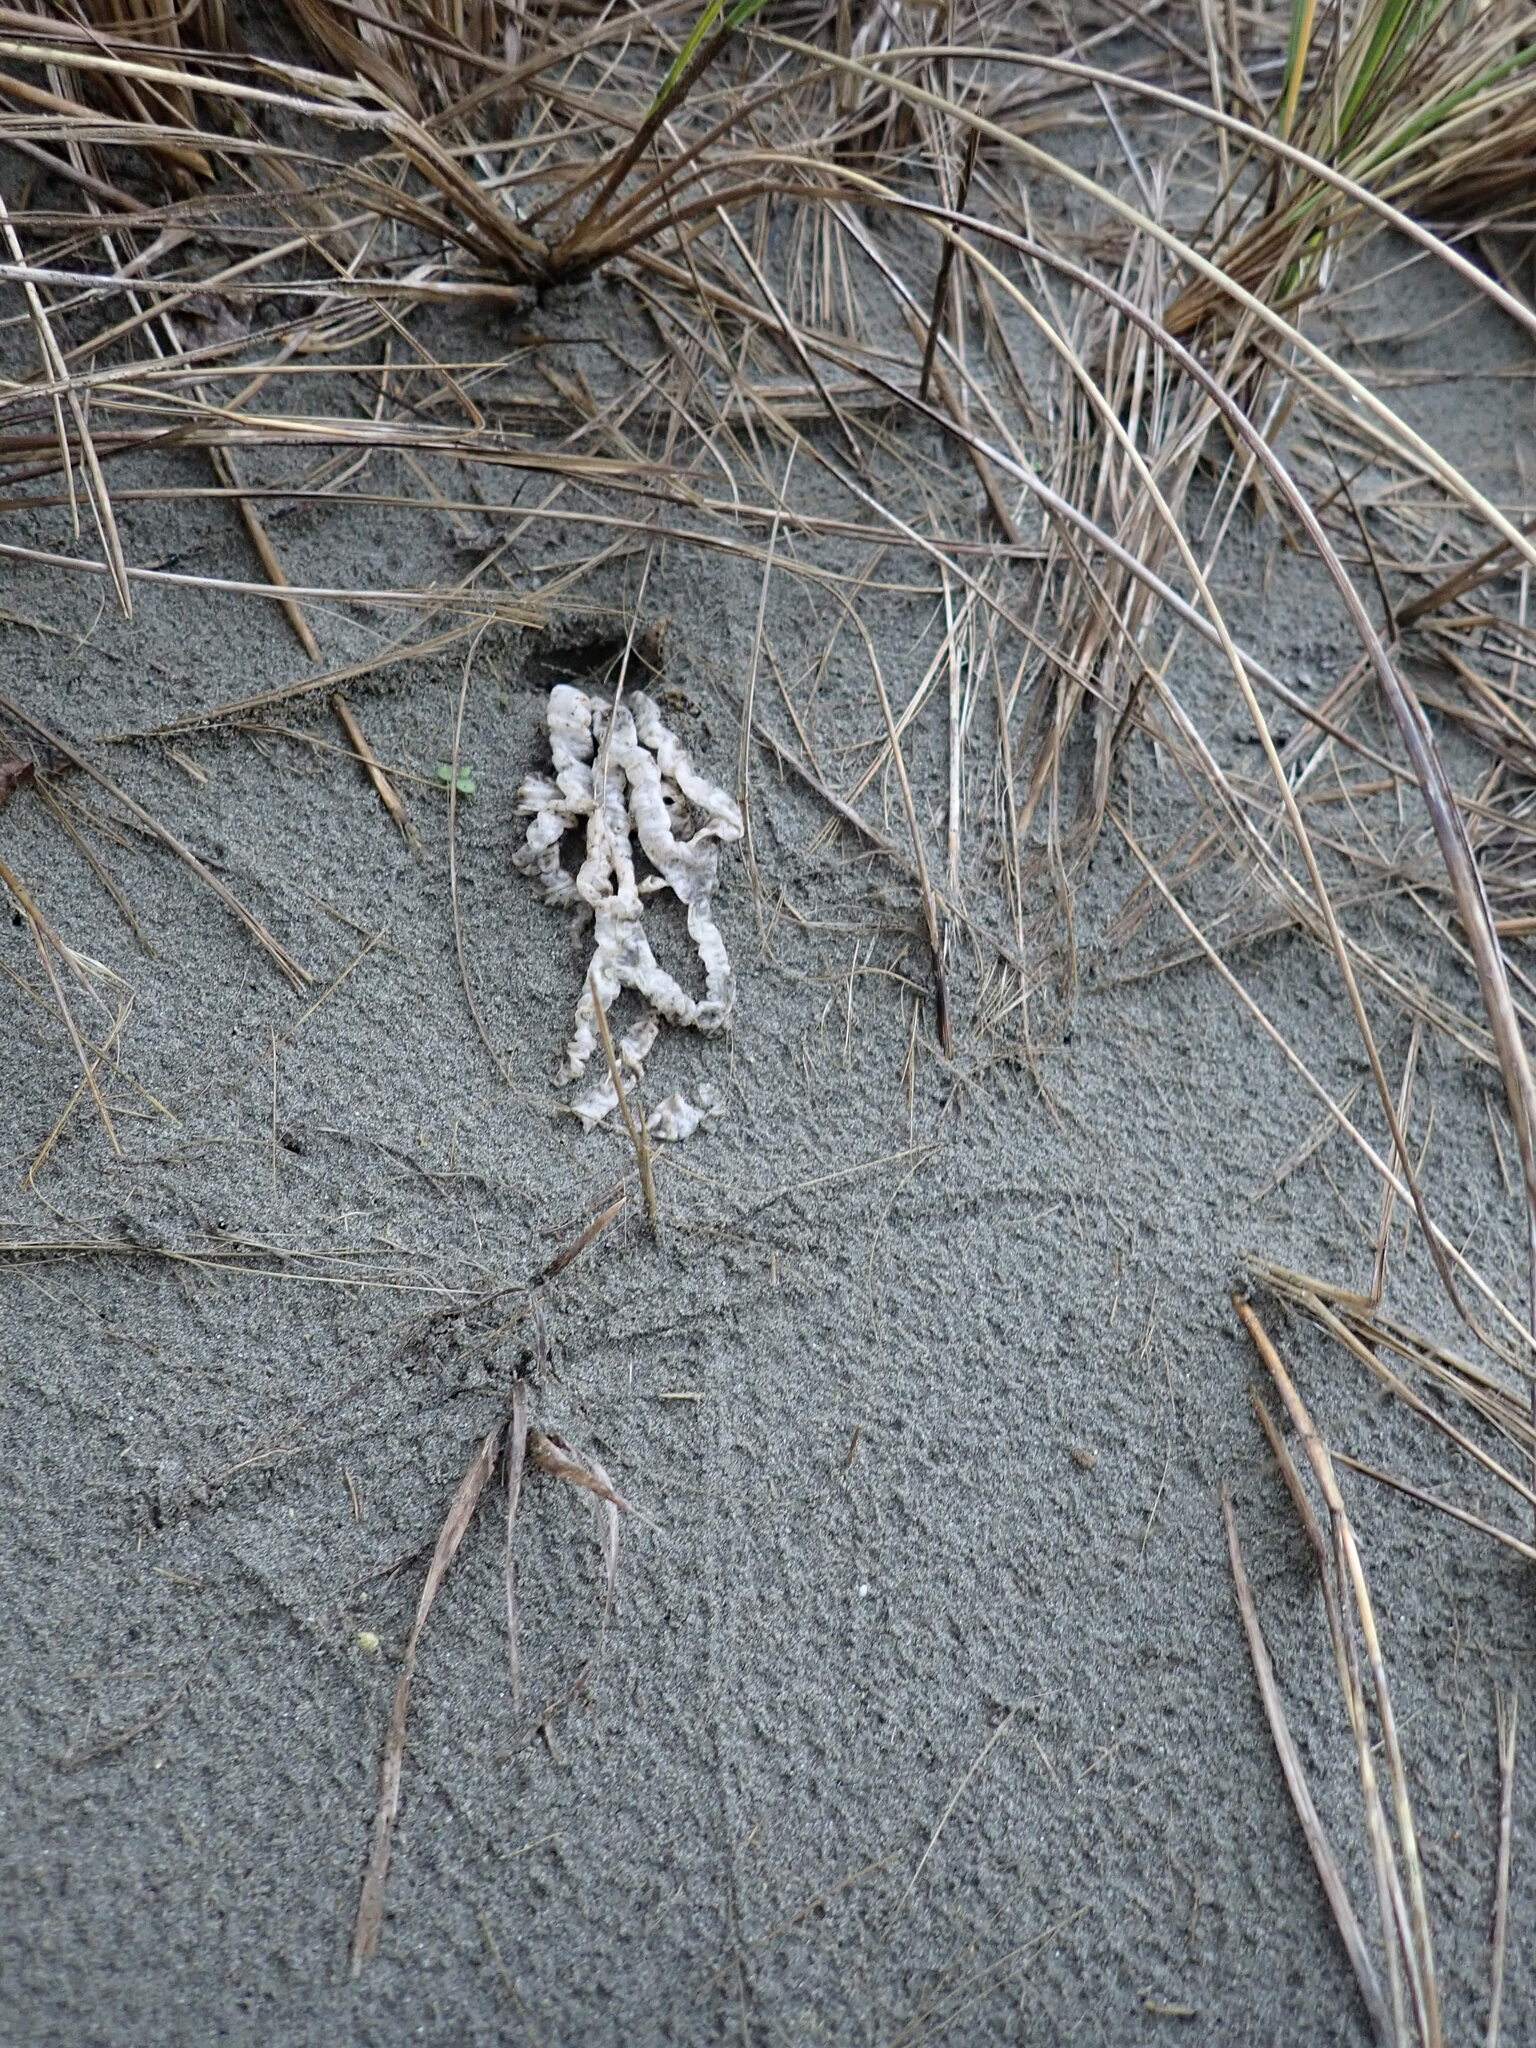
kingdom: Fungi
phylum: Basidiomycota
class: Agaricomycetes
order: Phallales
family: Phallaceae
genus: Ileodictyon
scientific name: Ileodictyon cibarium
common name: Basket fungus
